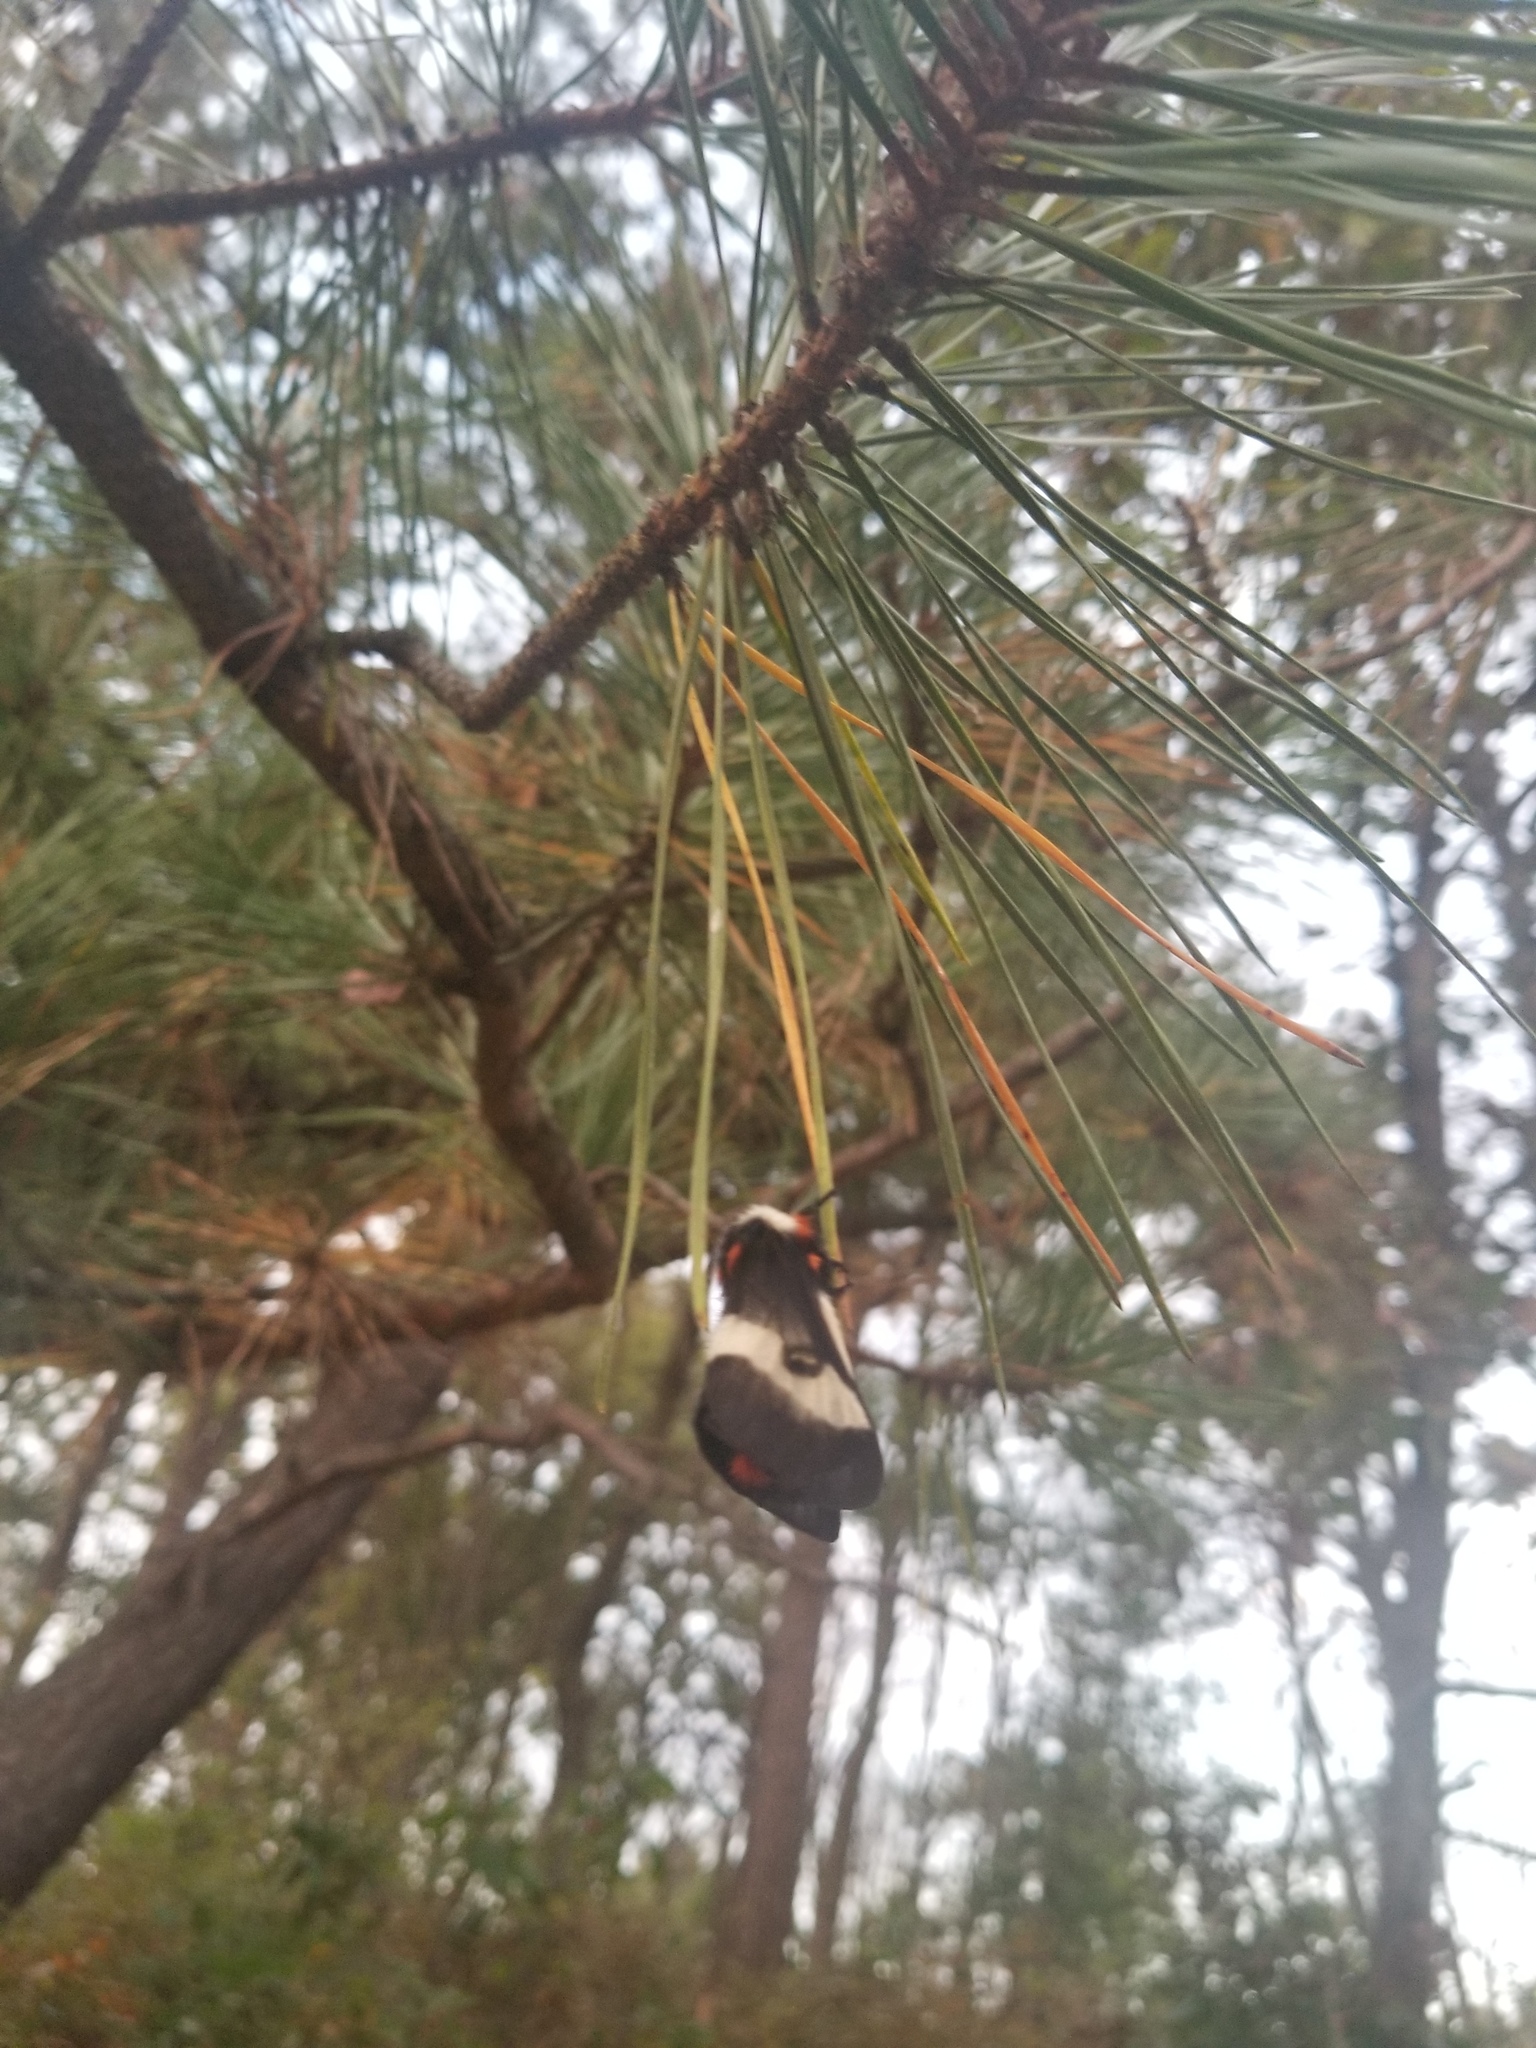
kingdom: Animalia
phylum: Arthropoda
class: Insecta
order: Lepidoptera
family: Saturniidae
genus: Hemileuca
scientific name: Hemileuca maia
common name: Eastern buckmoth
